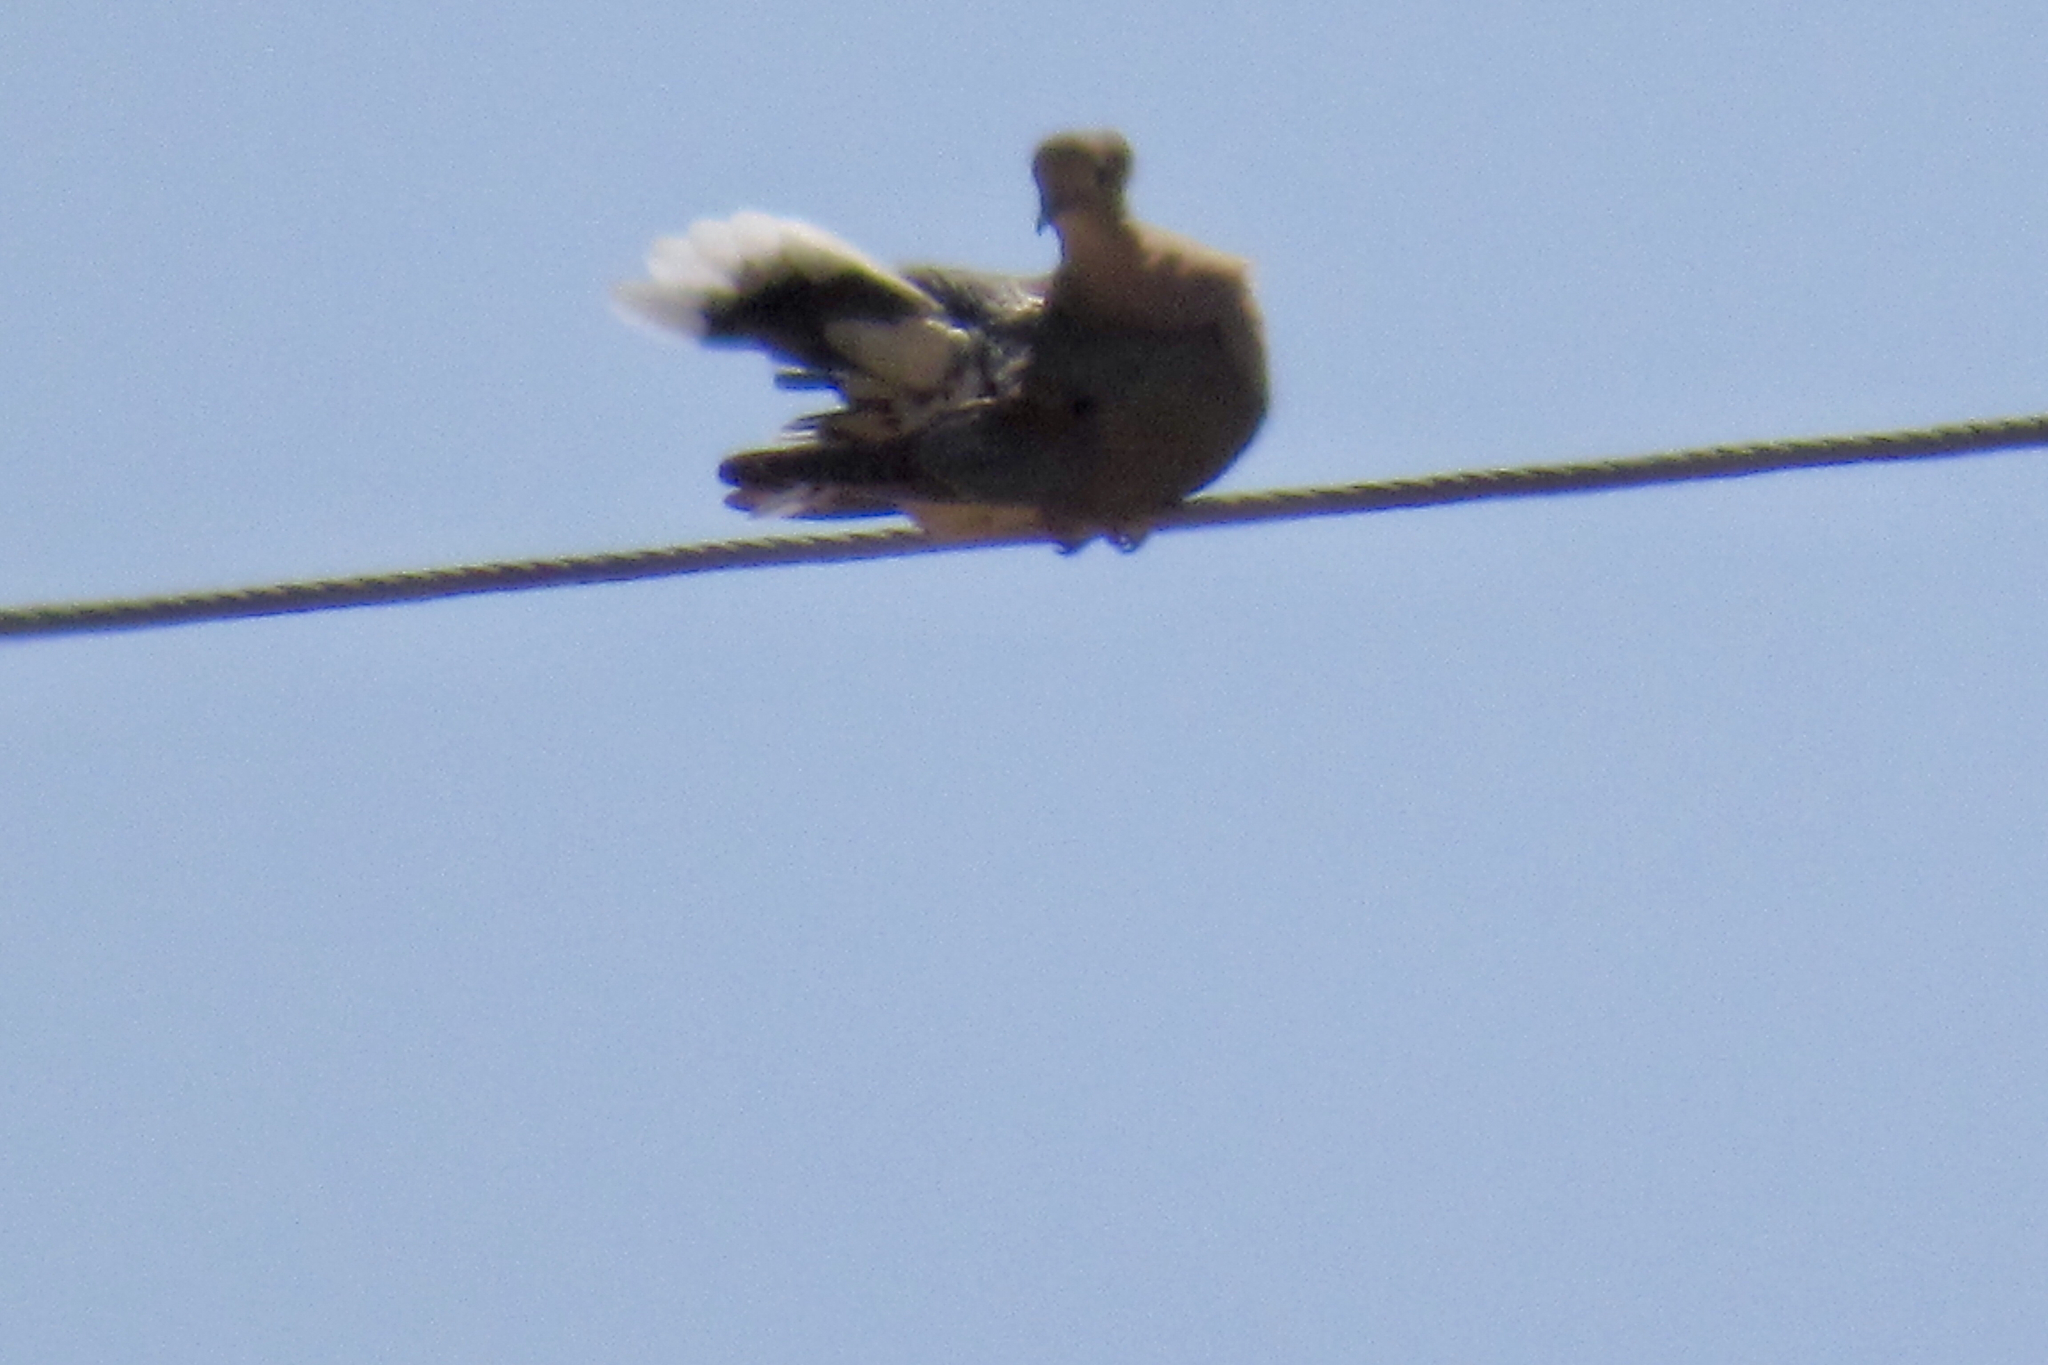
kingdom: Animalia
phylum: Chordata
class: Aves
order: Columbiformes
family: Columbidae
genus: Zenaida
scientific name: Zenaida macroura
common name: Mourning dove
